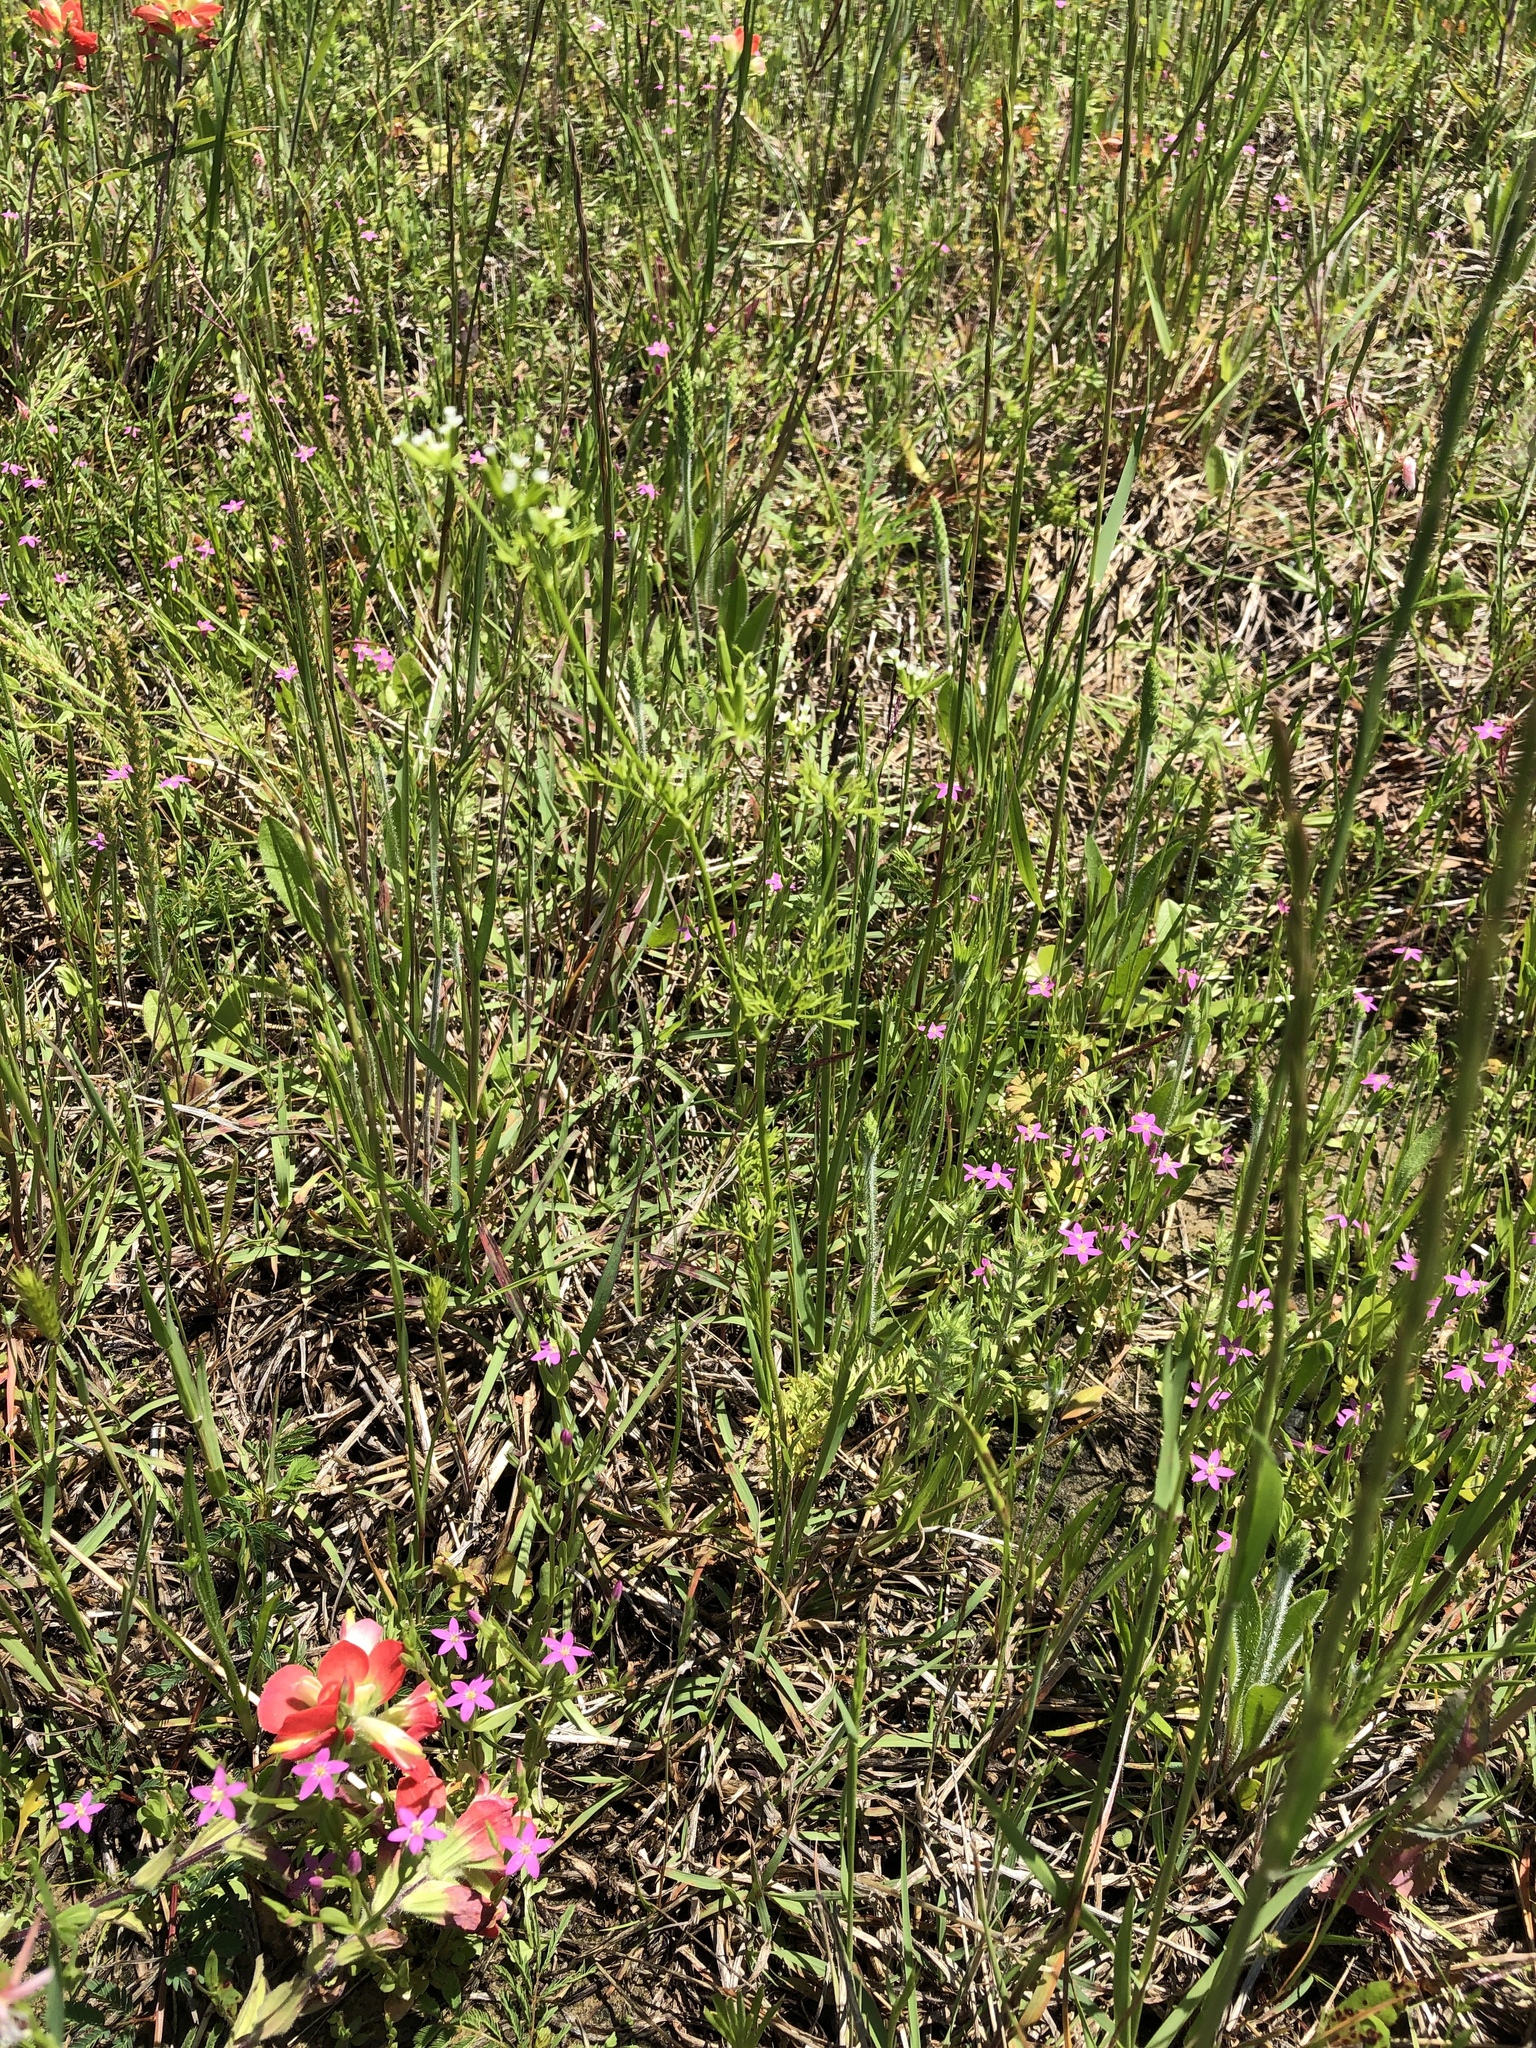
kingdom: Plantae
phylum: Tracheophyta
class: Magnoliopsida
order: Apiales
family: Apiaceae
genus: Chaerophyllum
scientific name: Chaerophyllum tainturieri
